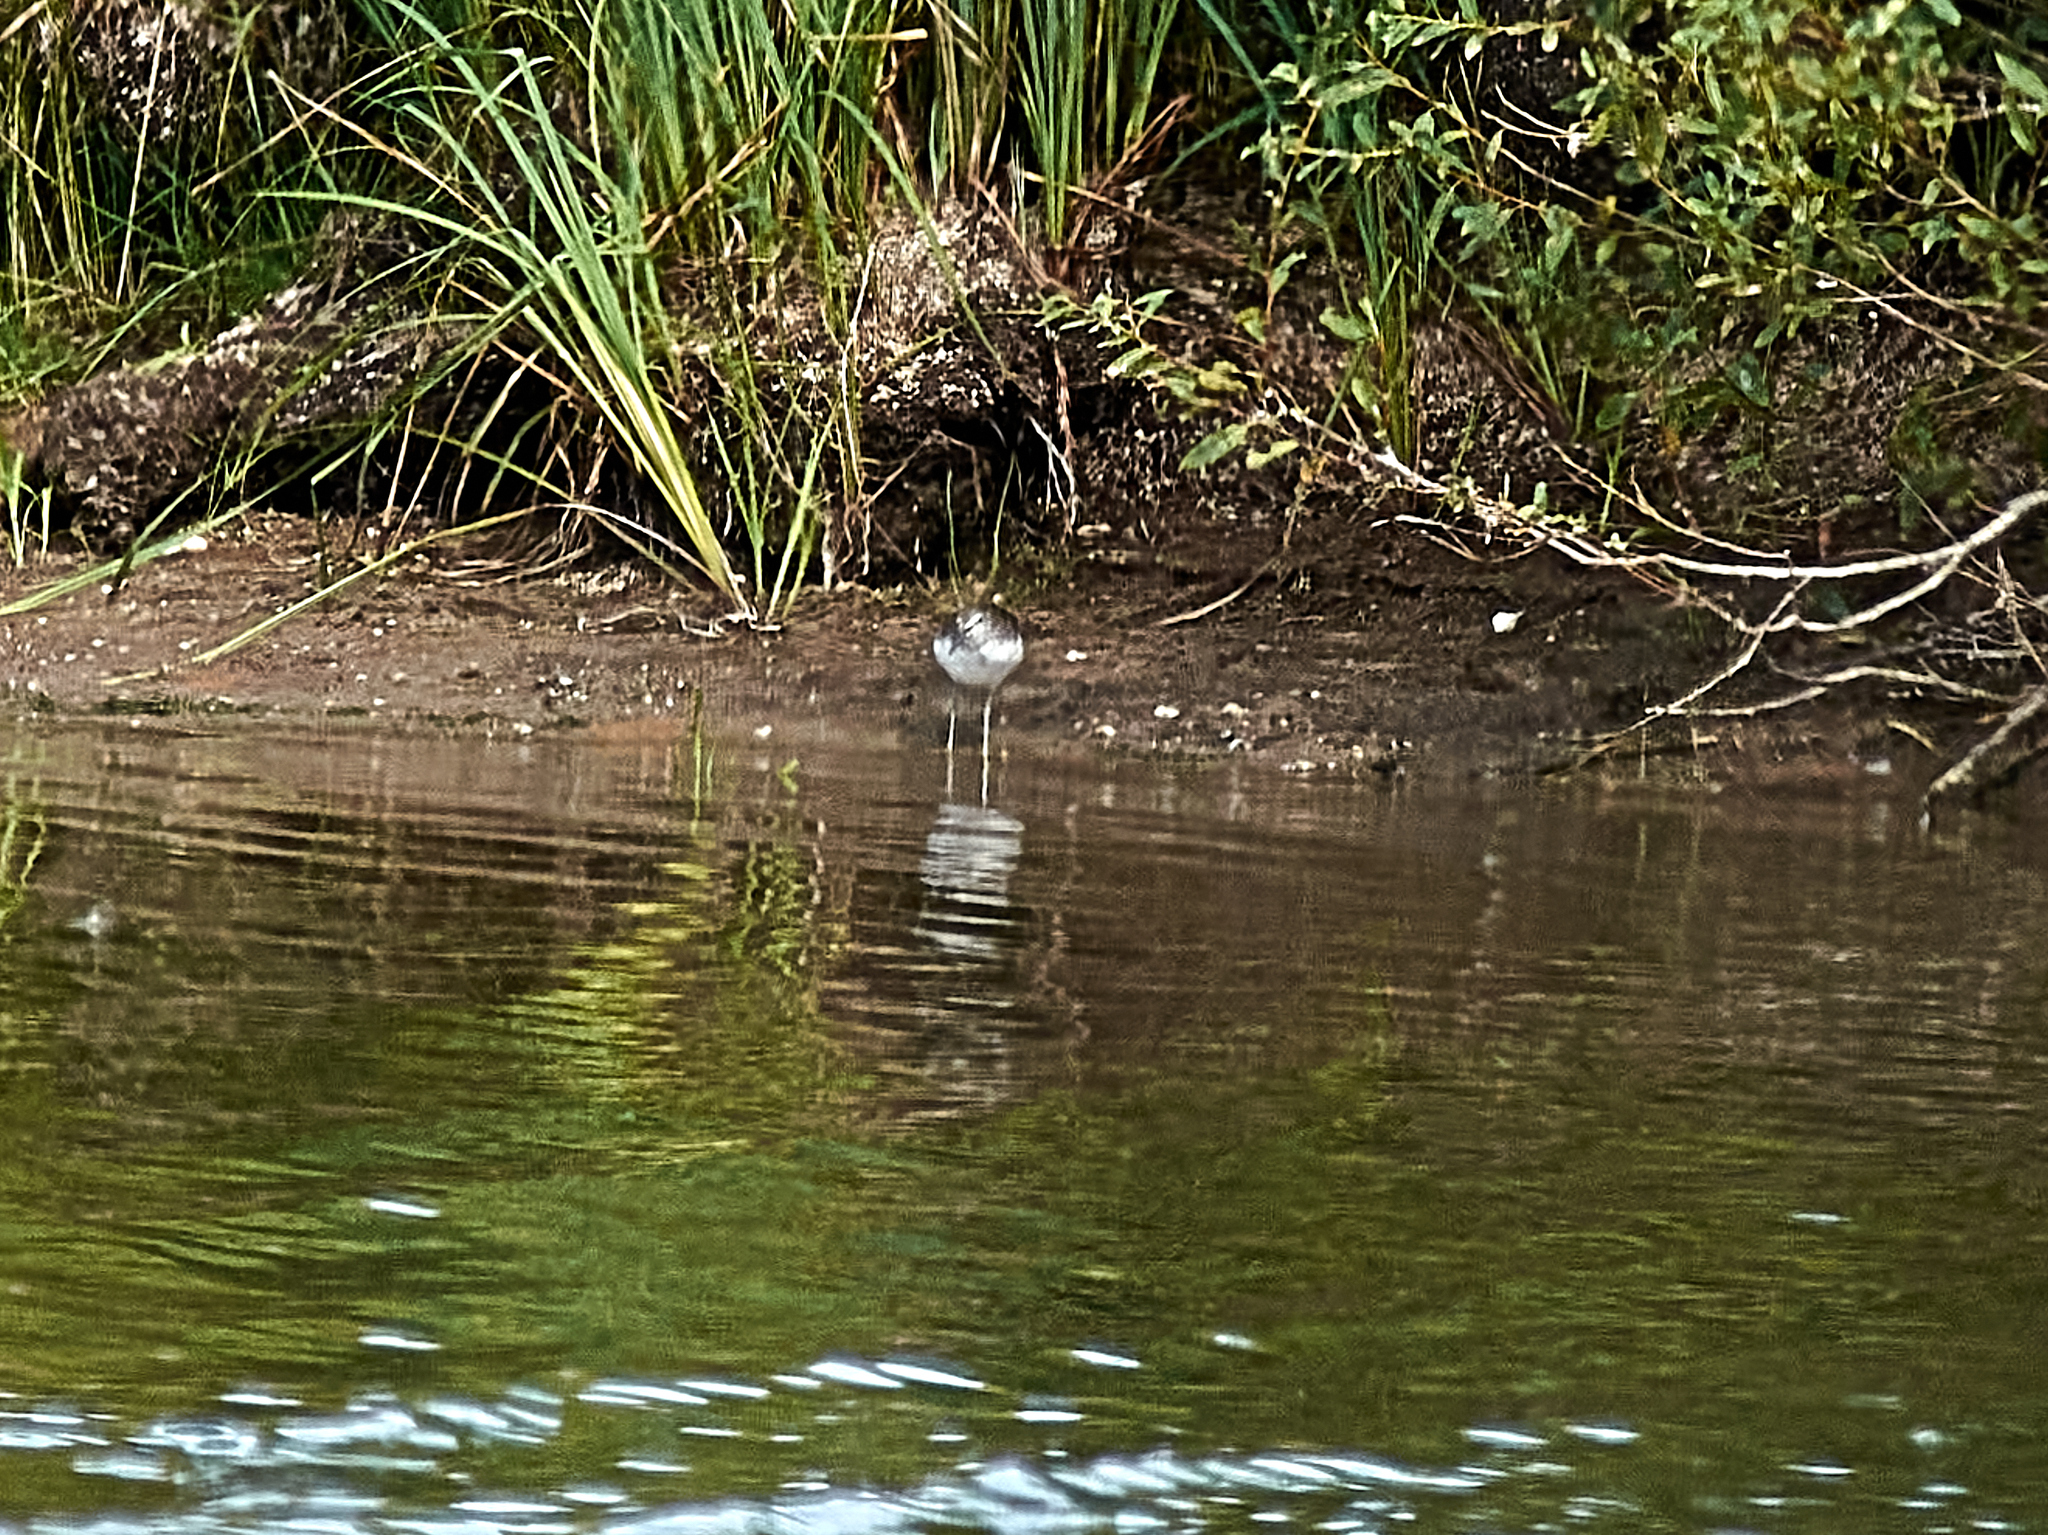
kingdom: Animalia
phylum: Chordata
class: Aves
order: Charadriiformes
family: Scolopacidae
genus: Tringa
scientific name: Tringa ochropus
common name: Green sandpiper
